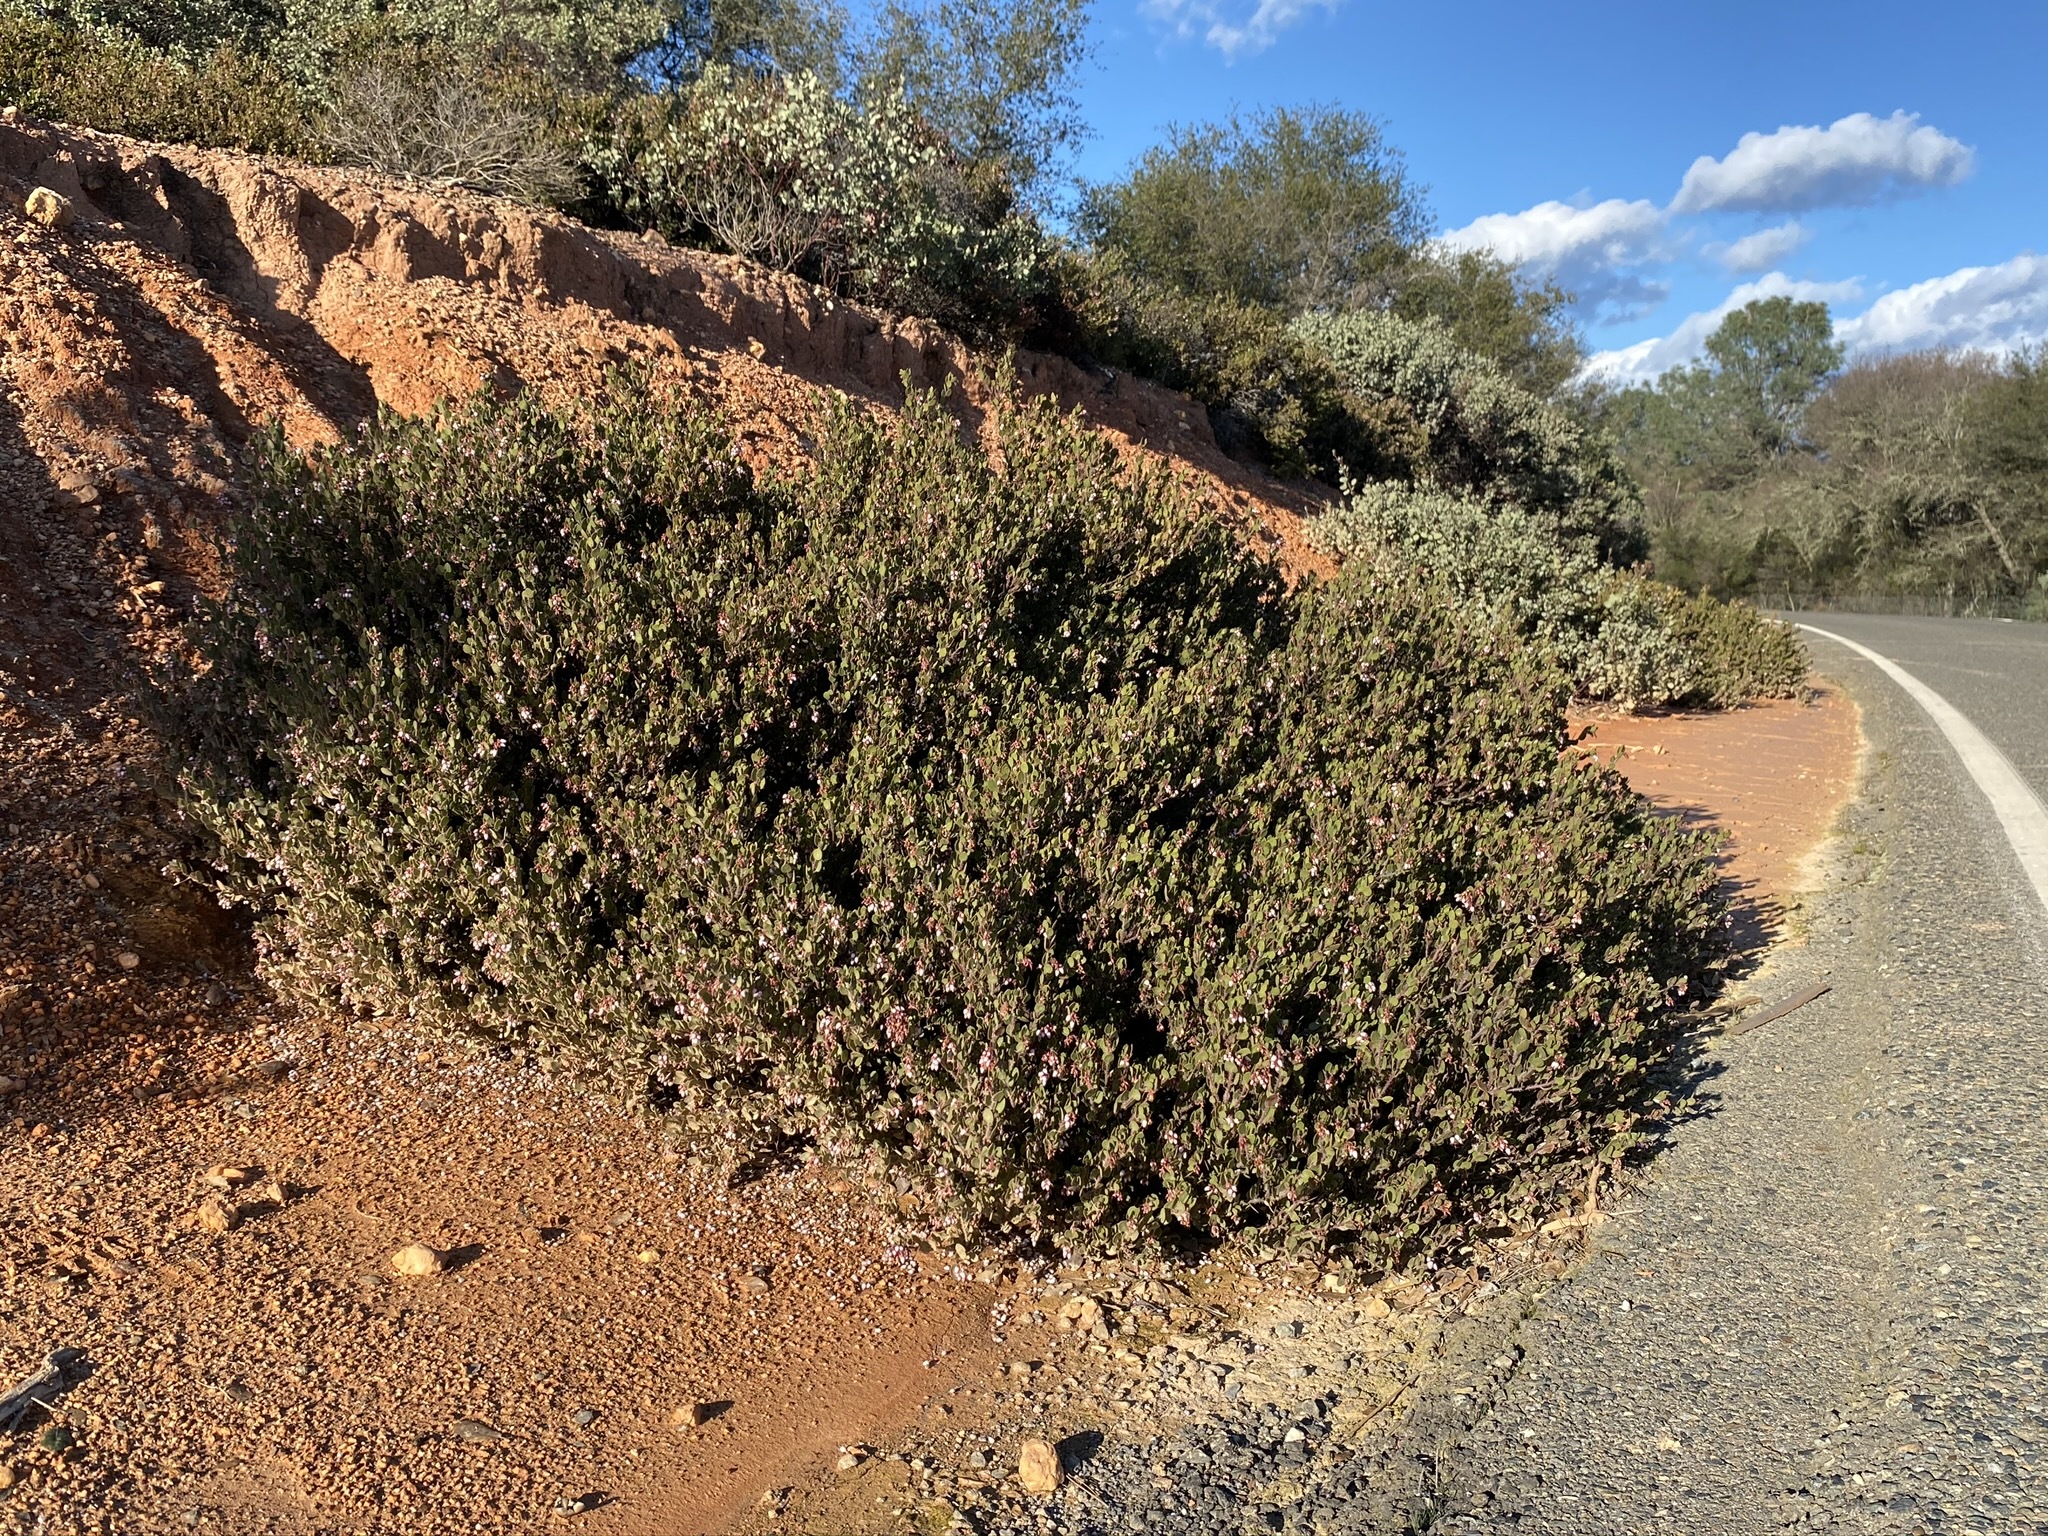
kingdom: Plantae
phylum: Tracheophyta
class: Magnoliopsida
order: Ericales
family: Ericaceae
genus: Arctostaphylos
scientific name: Arctostaphylos myrtifolia
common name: Ione manzanita
